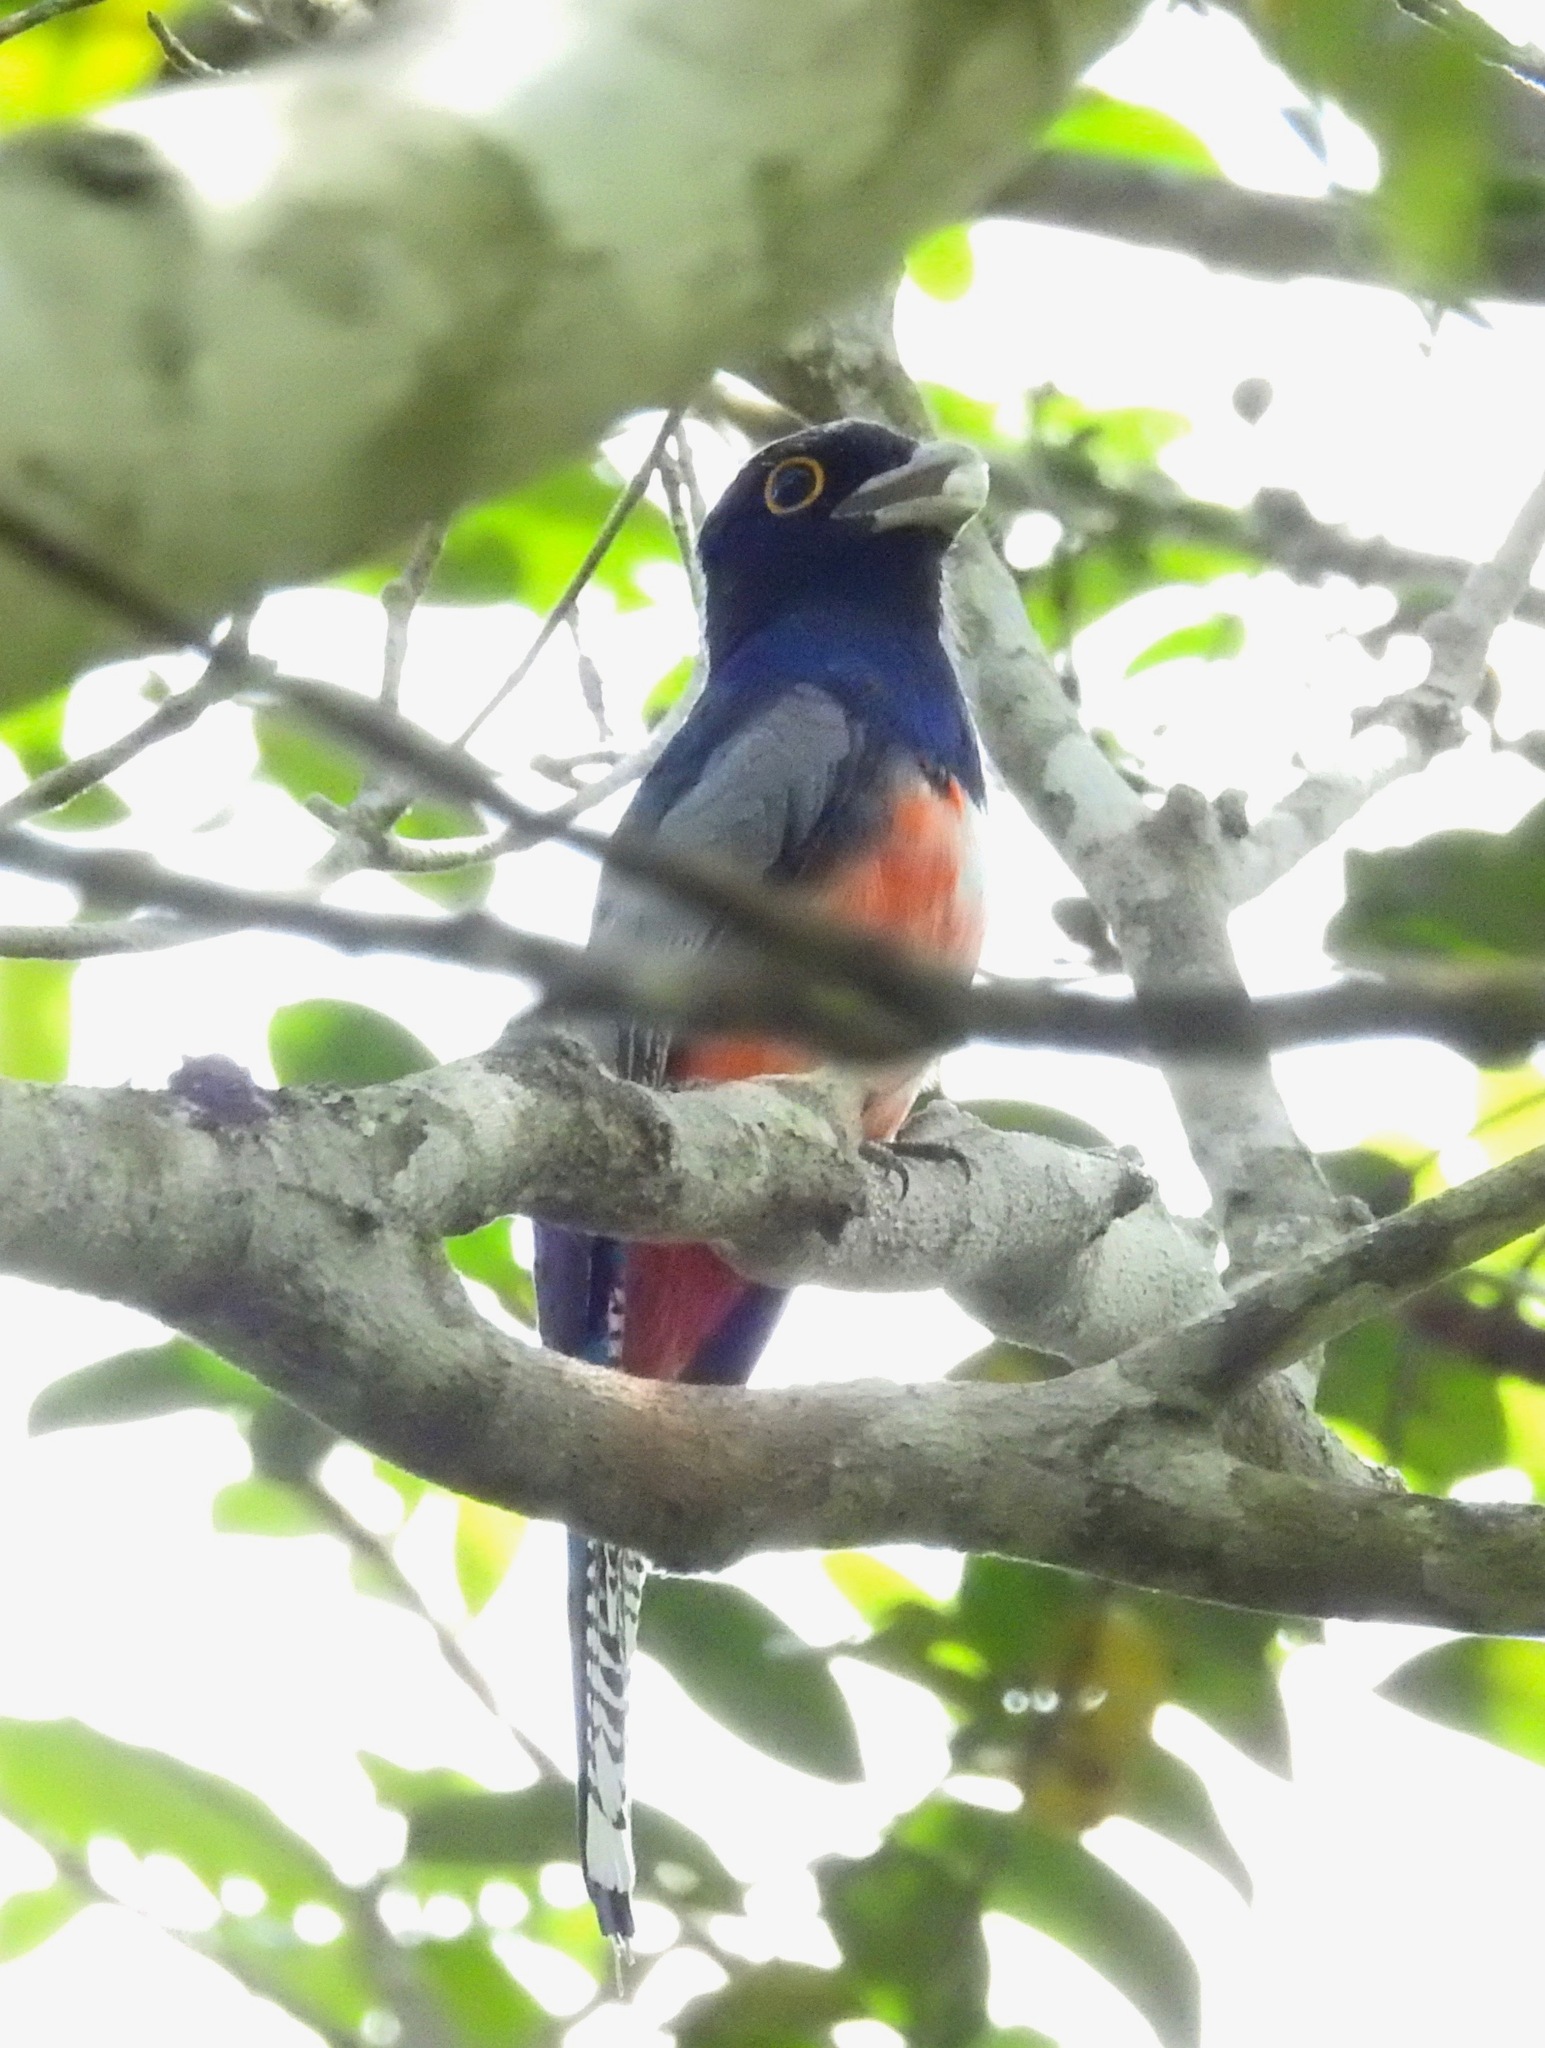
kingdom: Animalia
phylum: Chordata
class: Aves
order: Trogoniformes
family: Trogonidae
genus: Trogon
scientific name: Trogon curucui
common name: Blue-crowned trogon
